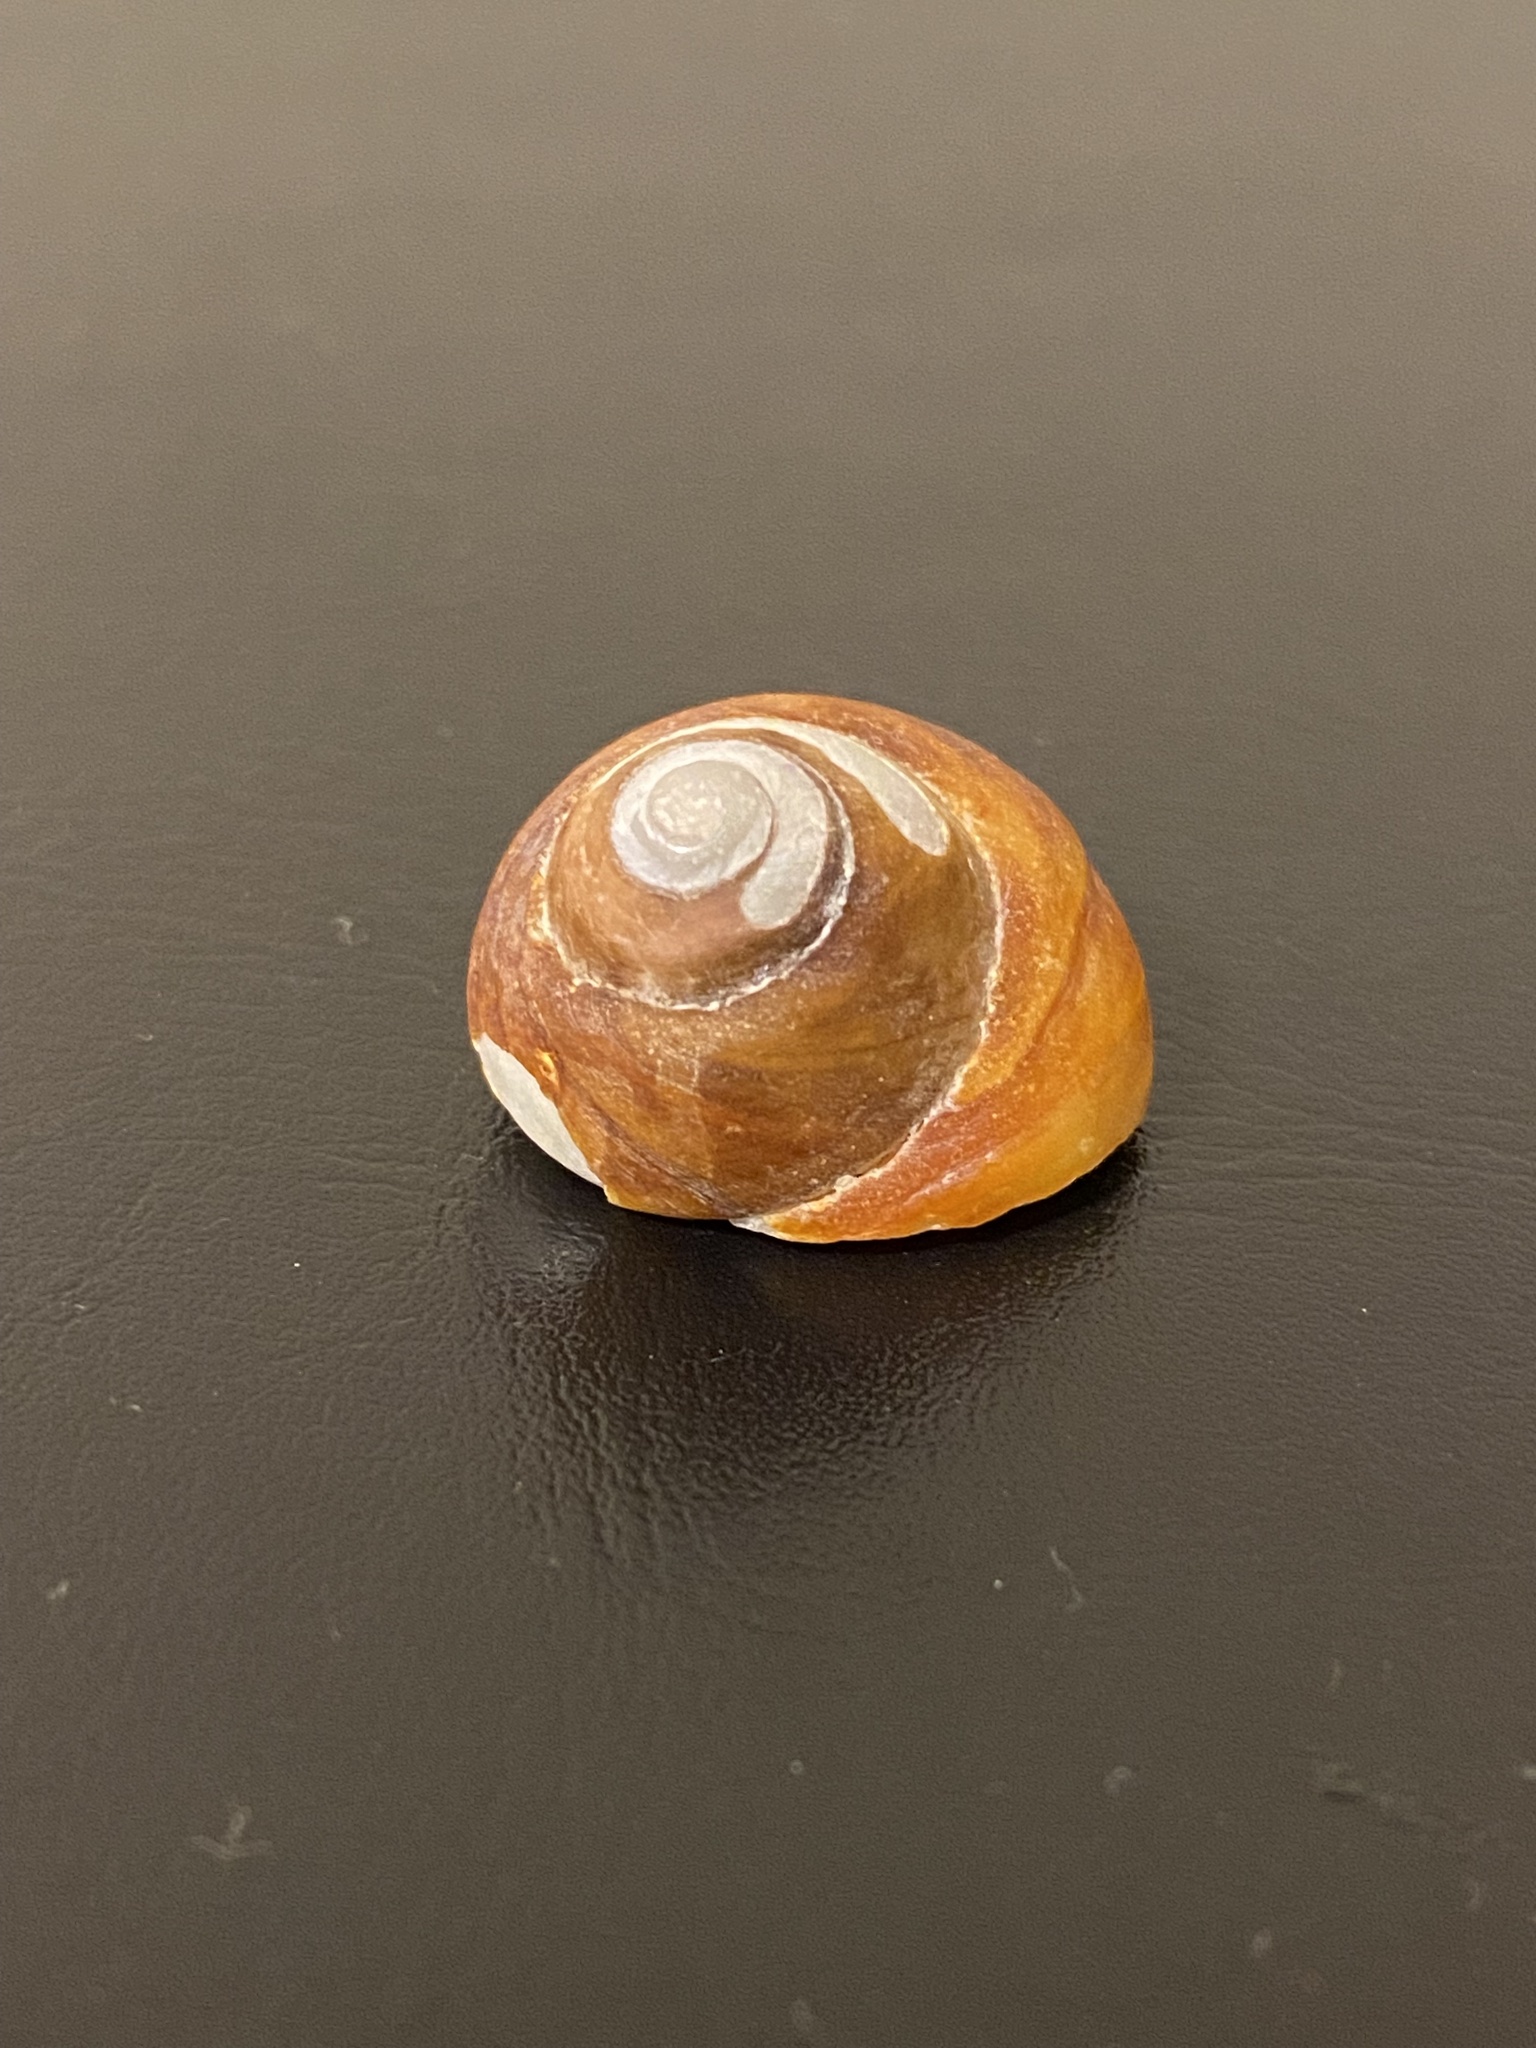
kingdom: Animalia
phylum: Mollusca
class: Gastropoda
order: Trochida
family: Tegulidae
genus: Tegula
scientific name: Tegula brunnea
